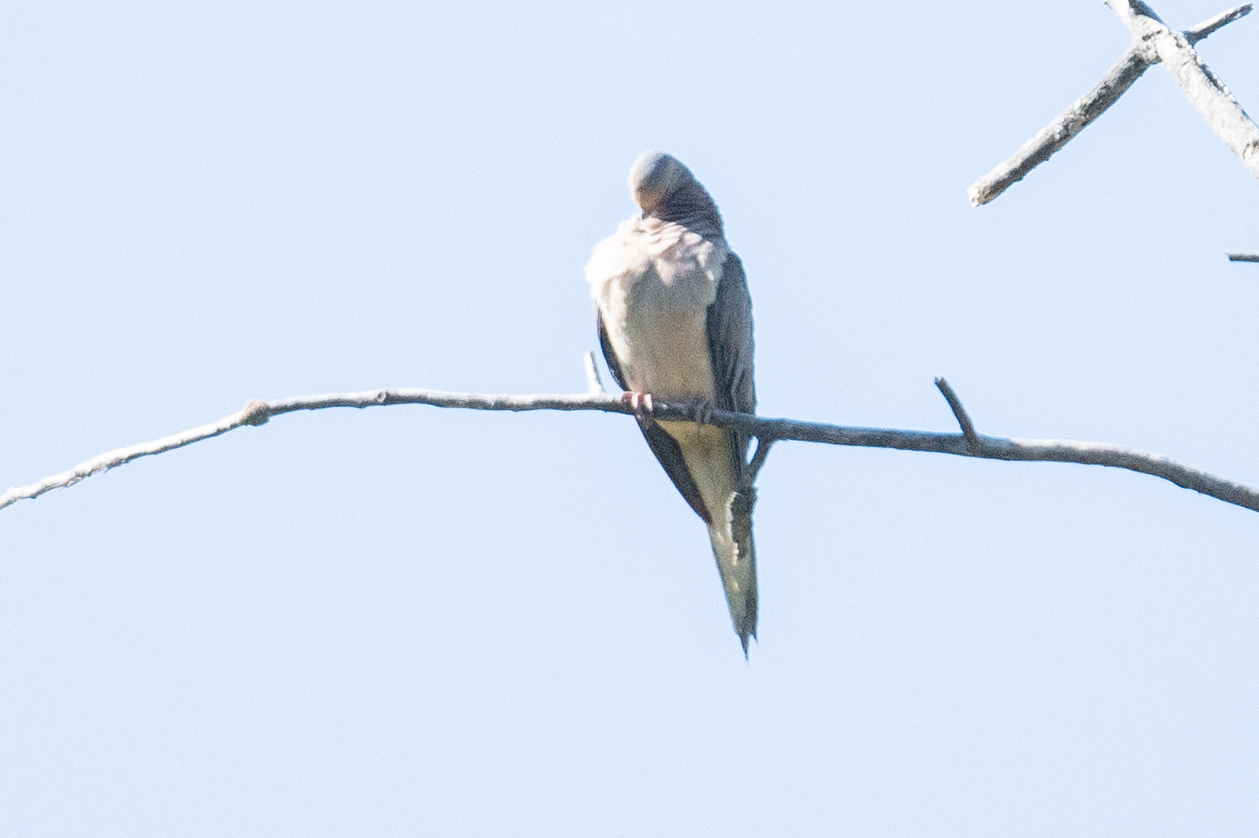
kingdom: Animalia
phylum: Chordata
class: Aves
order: Columbiformes
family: Columbidae
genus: Zenaida
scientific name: Zenaida macroura
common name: Mourning dove
